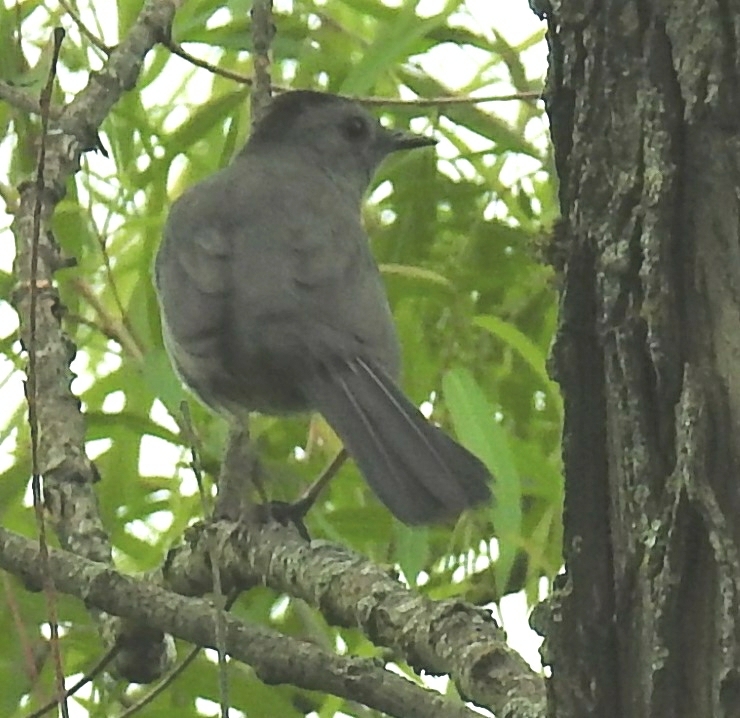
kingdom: Animalia
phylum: Chordata
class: Aves
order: Passeriformes
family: Mimidae
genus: Dumetella
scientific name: Dumetella carolinensis
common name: Gray catbird
